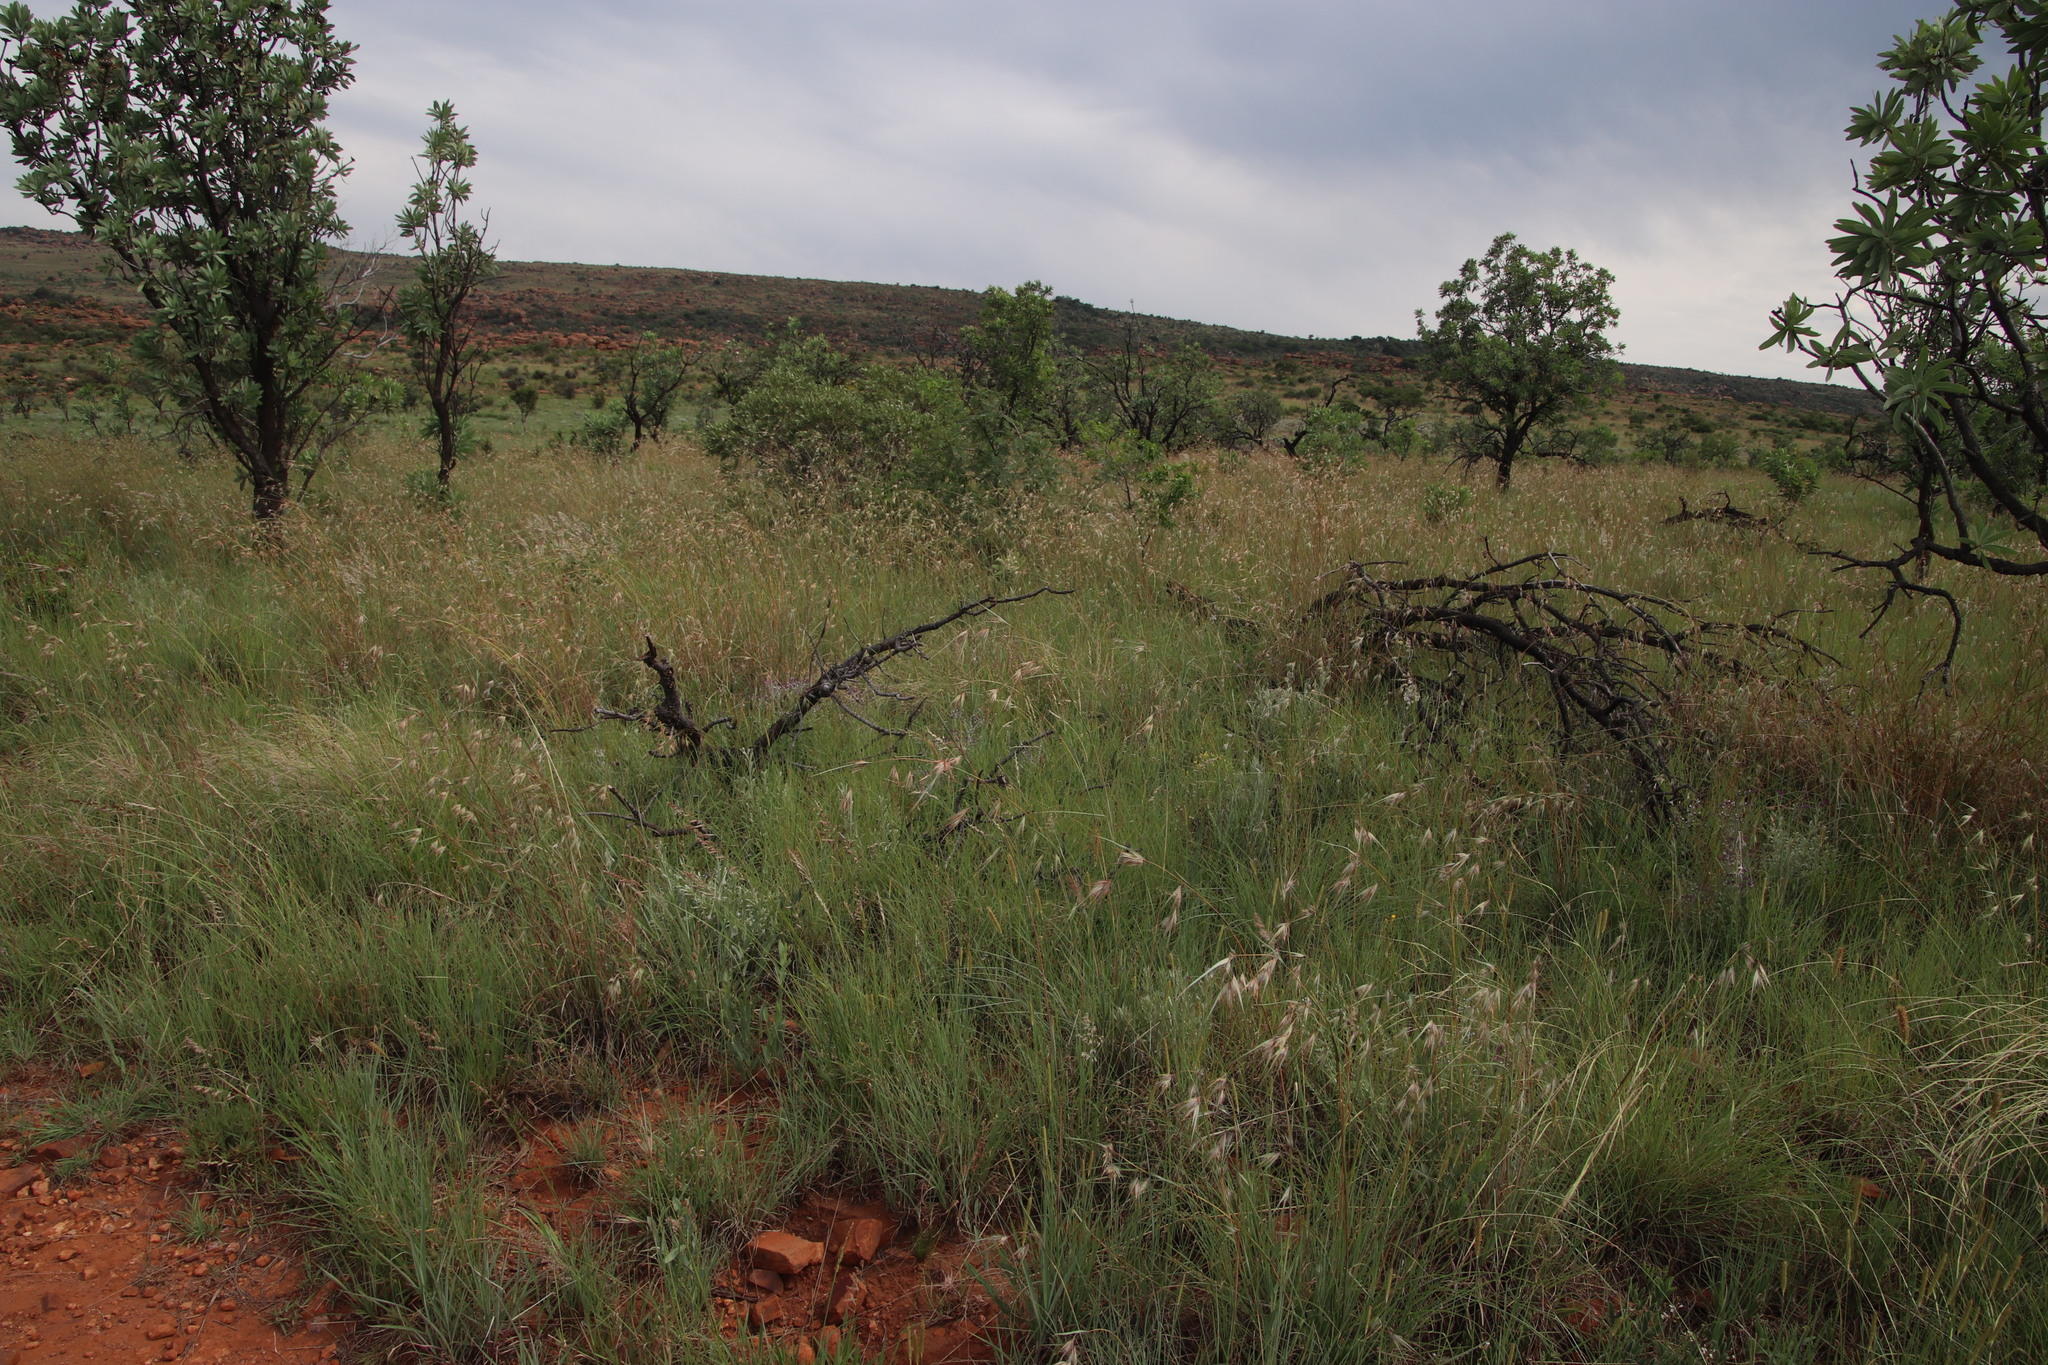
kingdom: Plantae
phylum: Tracheophyta
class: Liliopsida
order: Poales
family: Poaceae
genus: Themeda
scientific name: Themeda triandra
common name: Kangaroo grass
